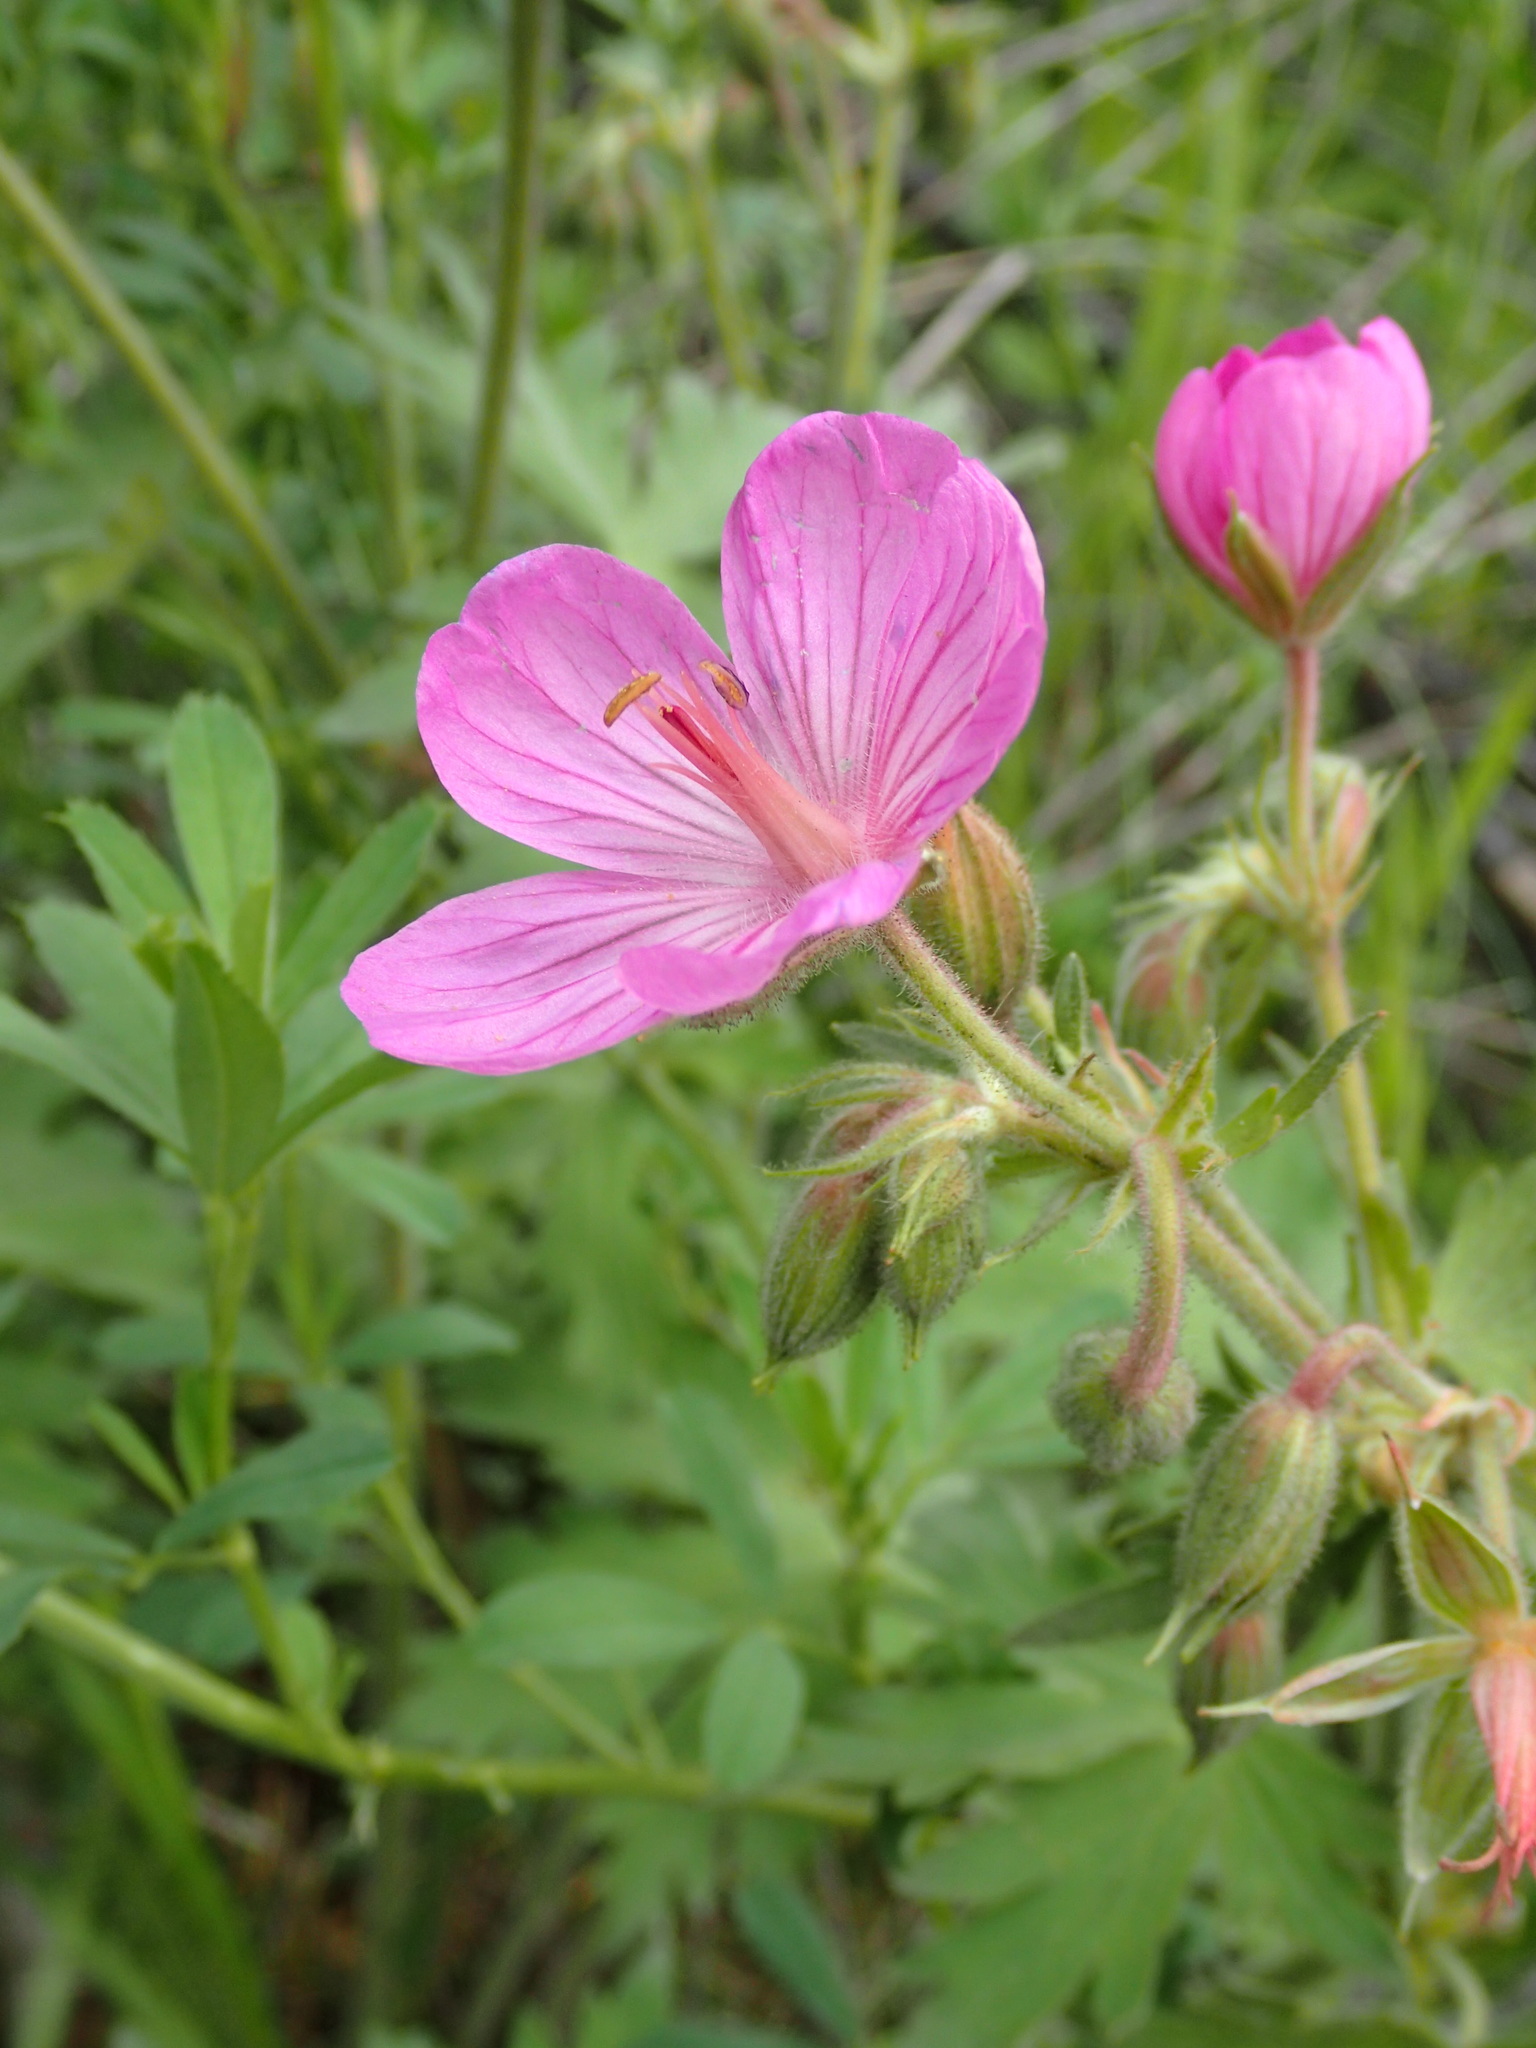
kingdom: Plantae
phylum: Tracheophyta
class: Magnoliopsida
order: Geraniales
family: Geraniaceae
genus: Geranium
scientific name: Geranium viscosissimum
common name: Purple geranium
